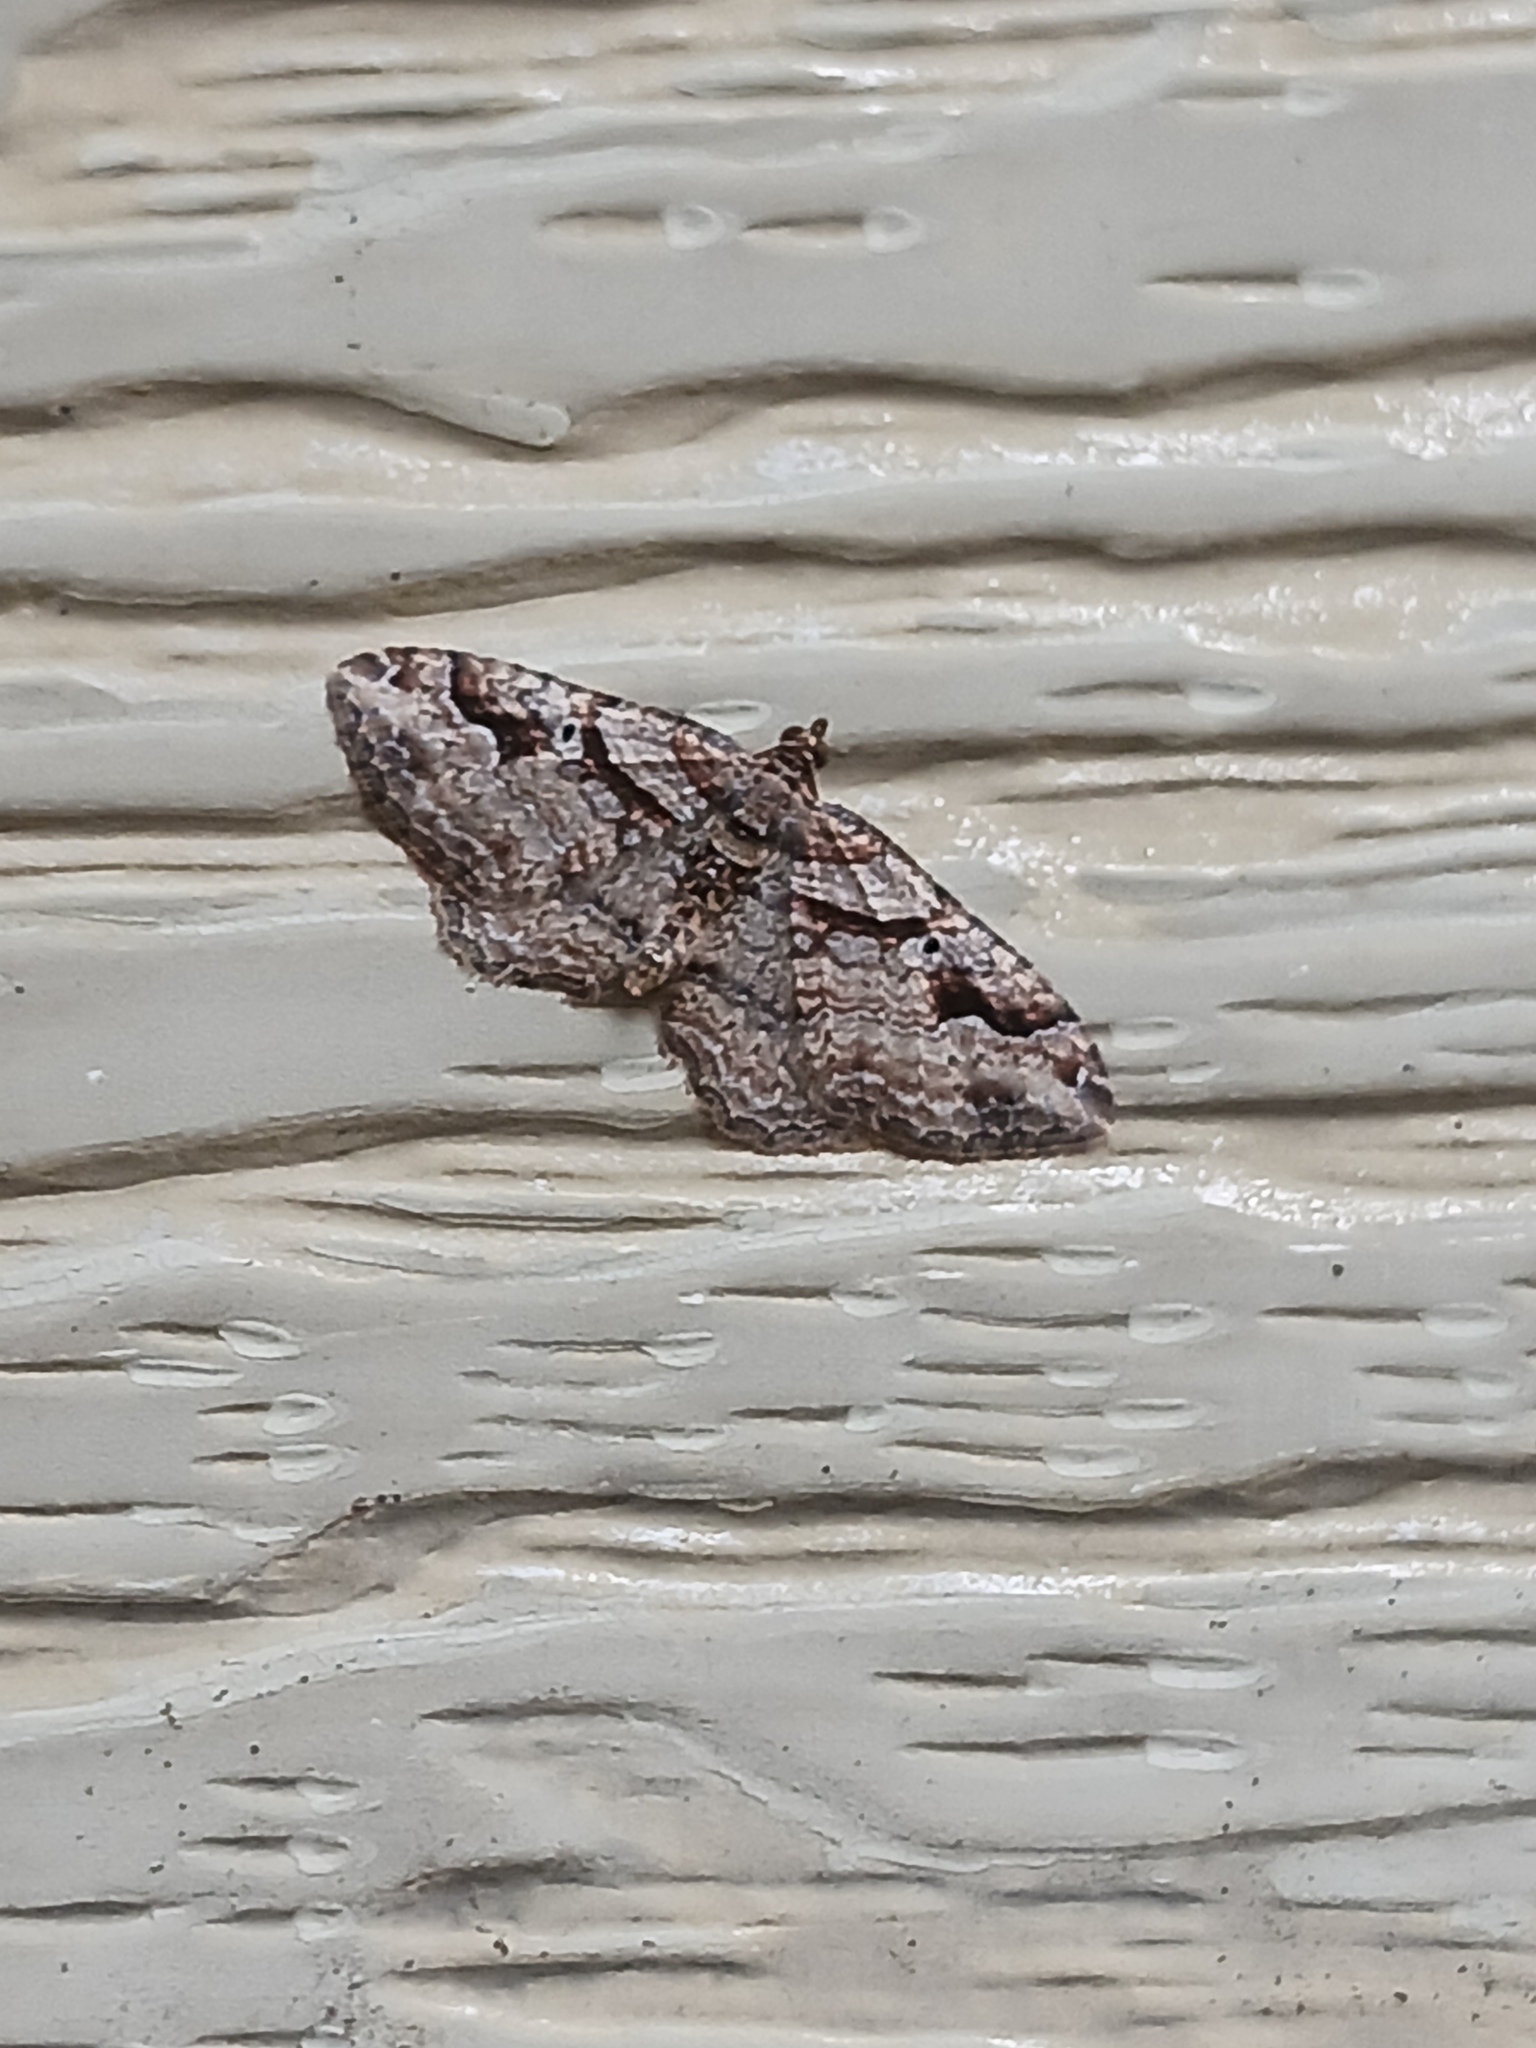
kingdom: Animalia
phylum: Arthropoda
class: Insecta
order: Lepidoptera
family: Geometridae
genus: Costaconvexa
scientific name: Costaconvexa centrostrigaria
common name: Bent-line carpet
